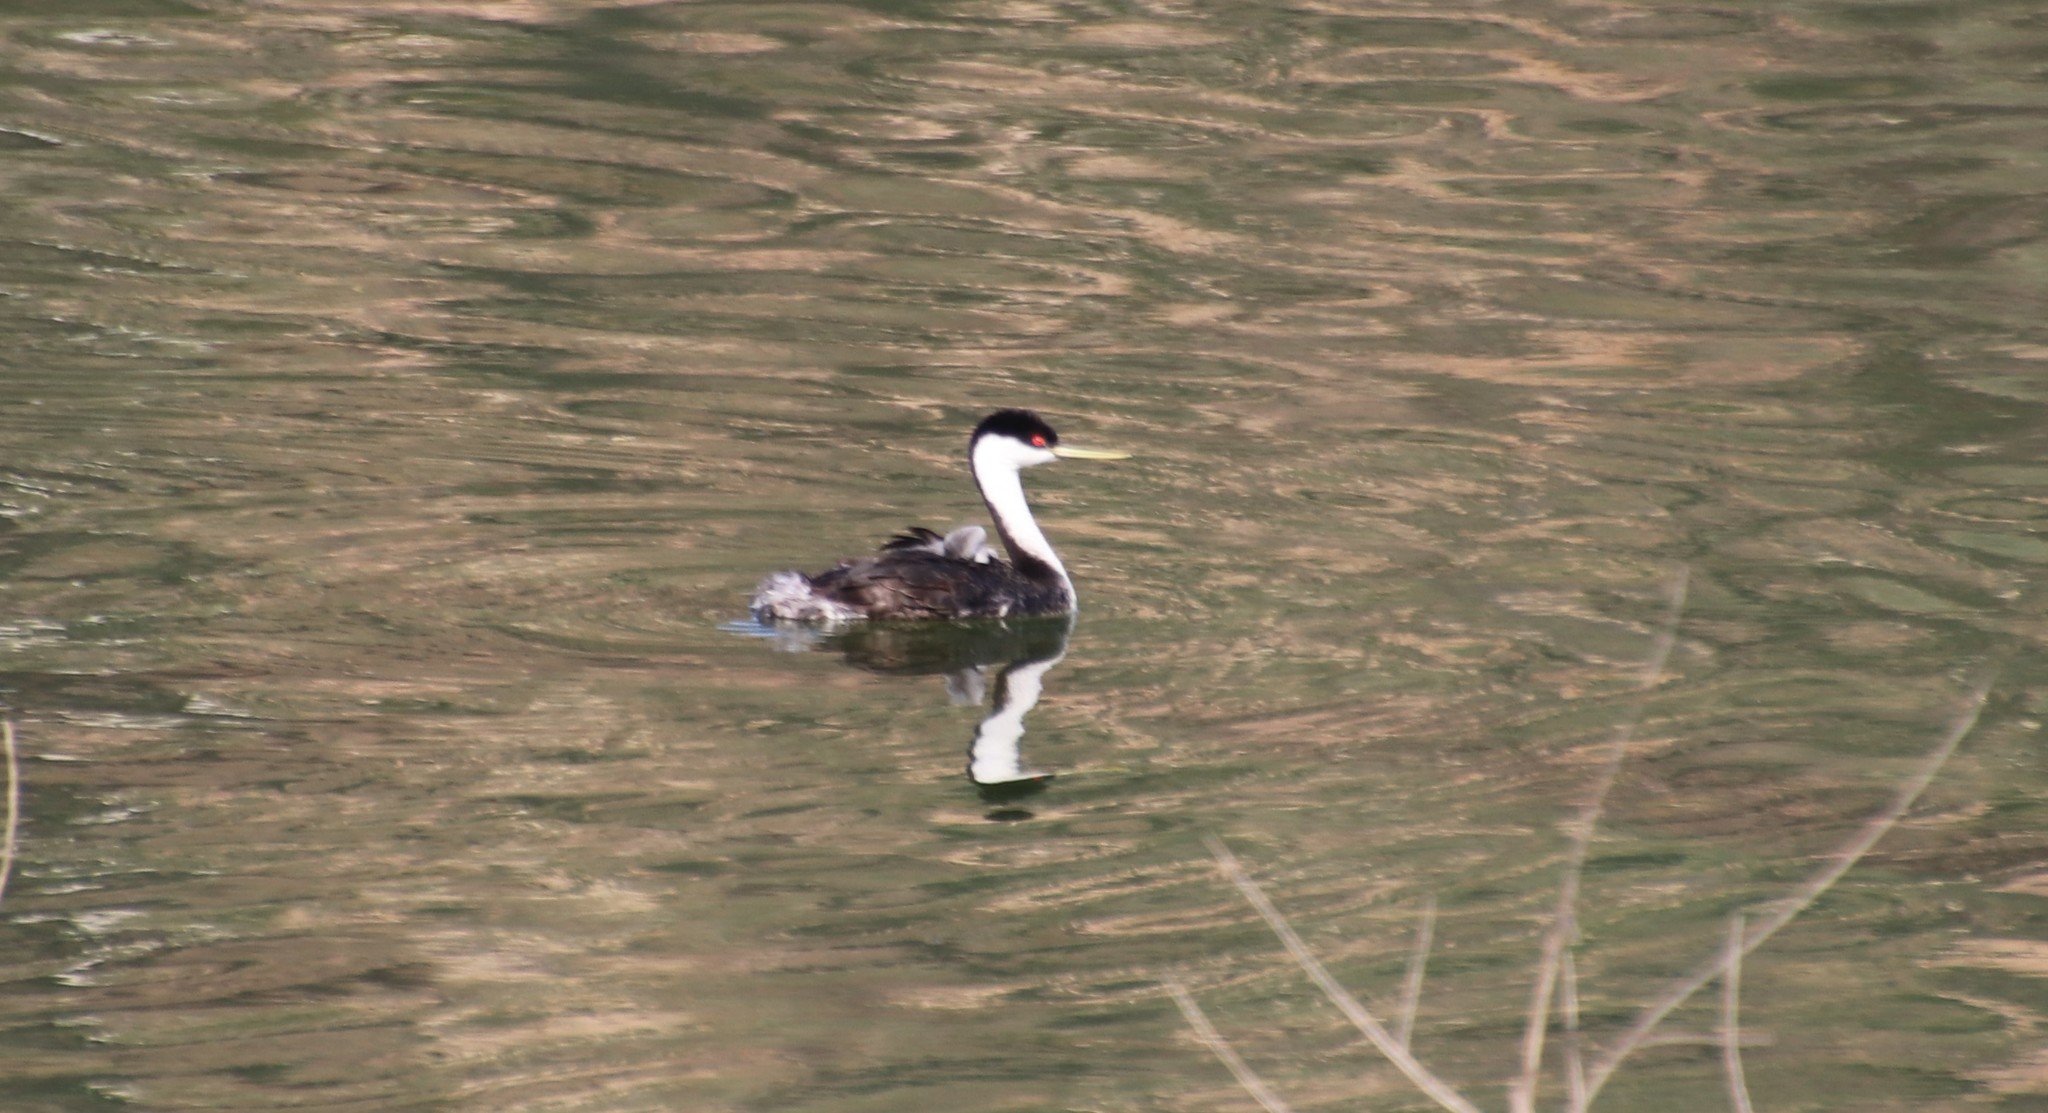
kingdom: Animalia
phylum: Chordata
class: Aves
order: Podicipediformes
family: Podicipedidae
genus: Aechmophorus
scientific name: Aechmophorus occidentalis
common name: Western grebe
